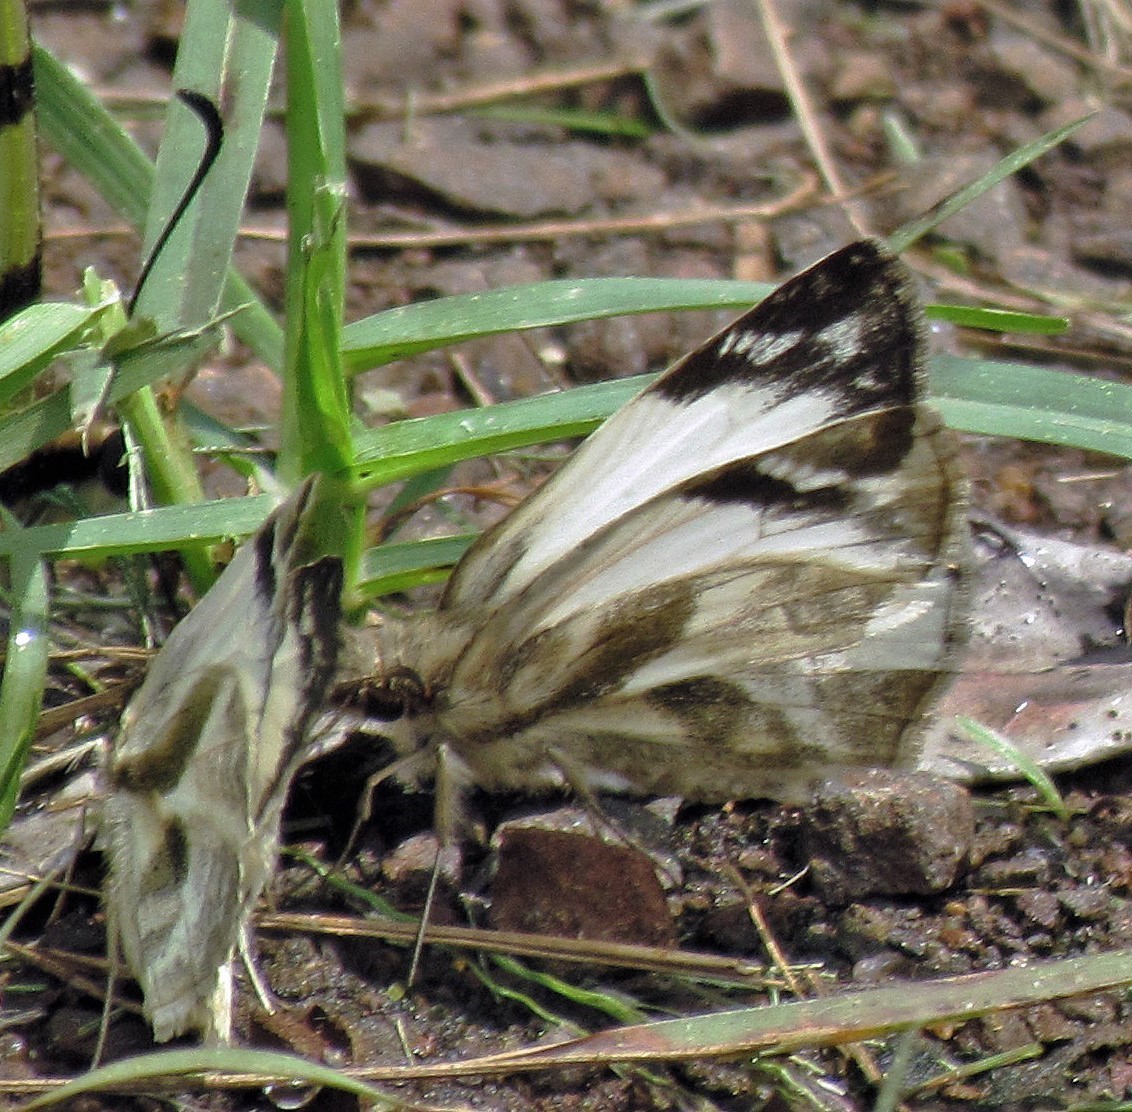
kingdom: Animalia
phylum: Arthropoda
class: Insecta
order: Lepidoptera
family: Hesperiidae
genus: Heliopetes
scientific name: Heliopetes laviana
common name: Laviana white-skipper
